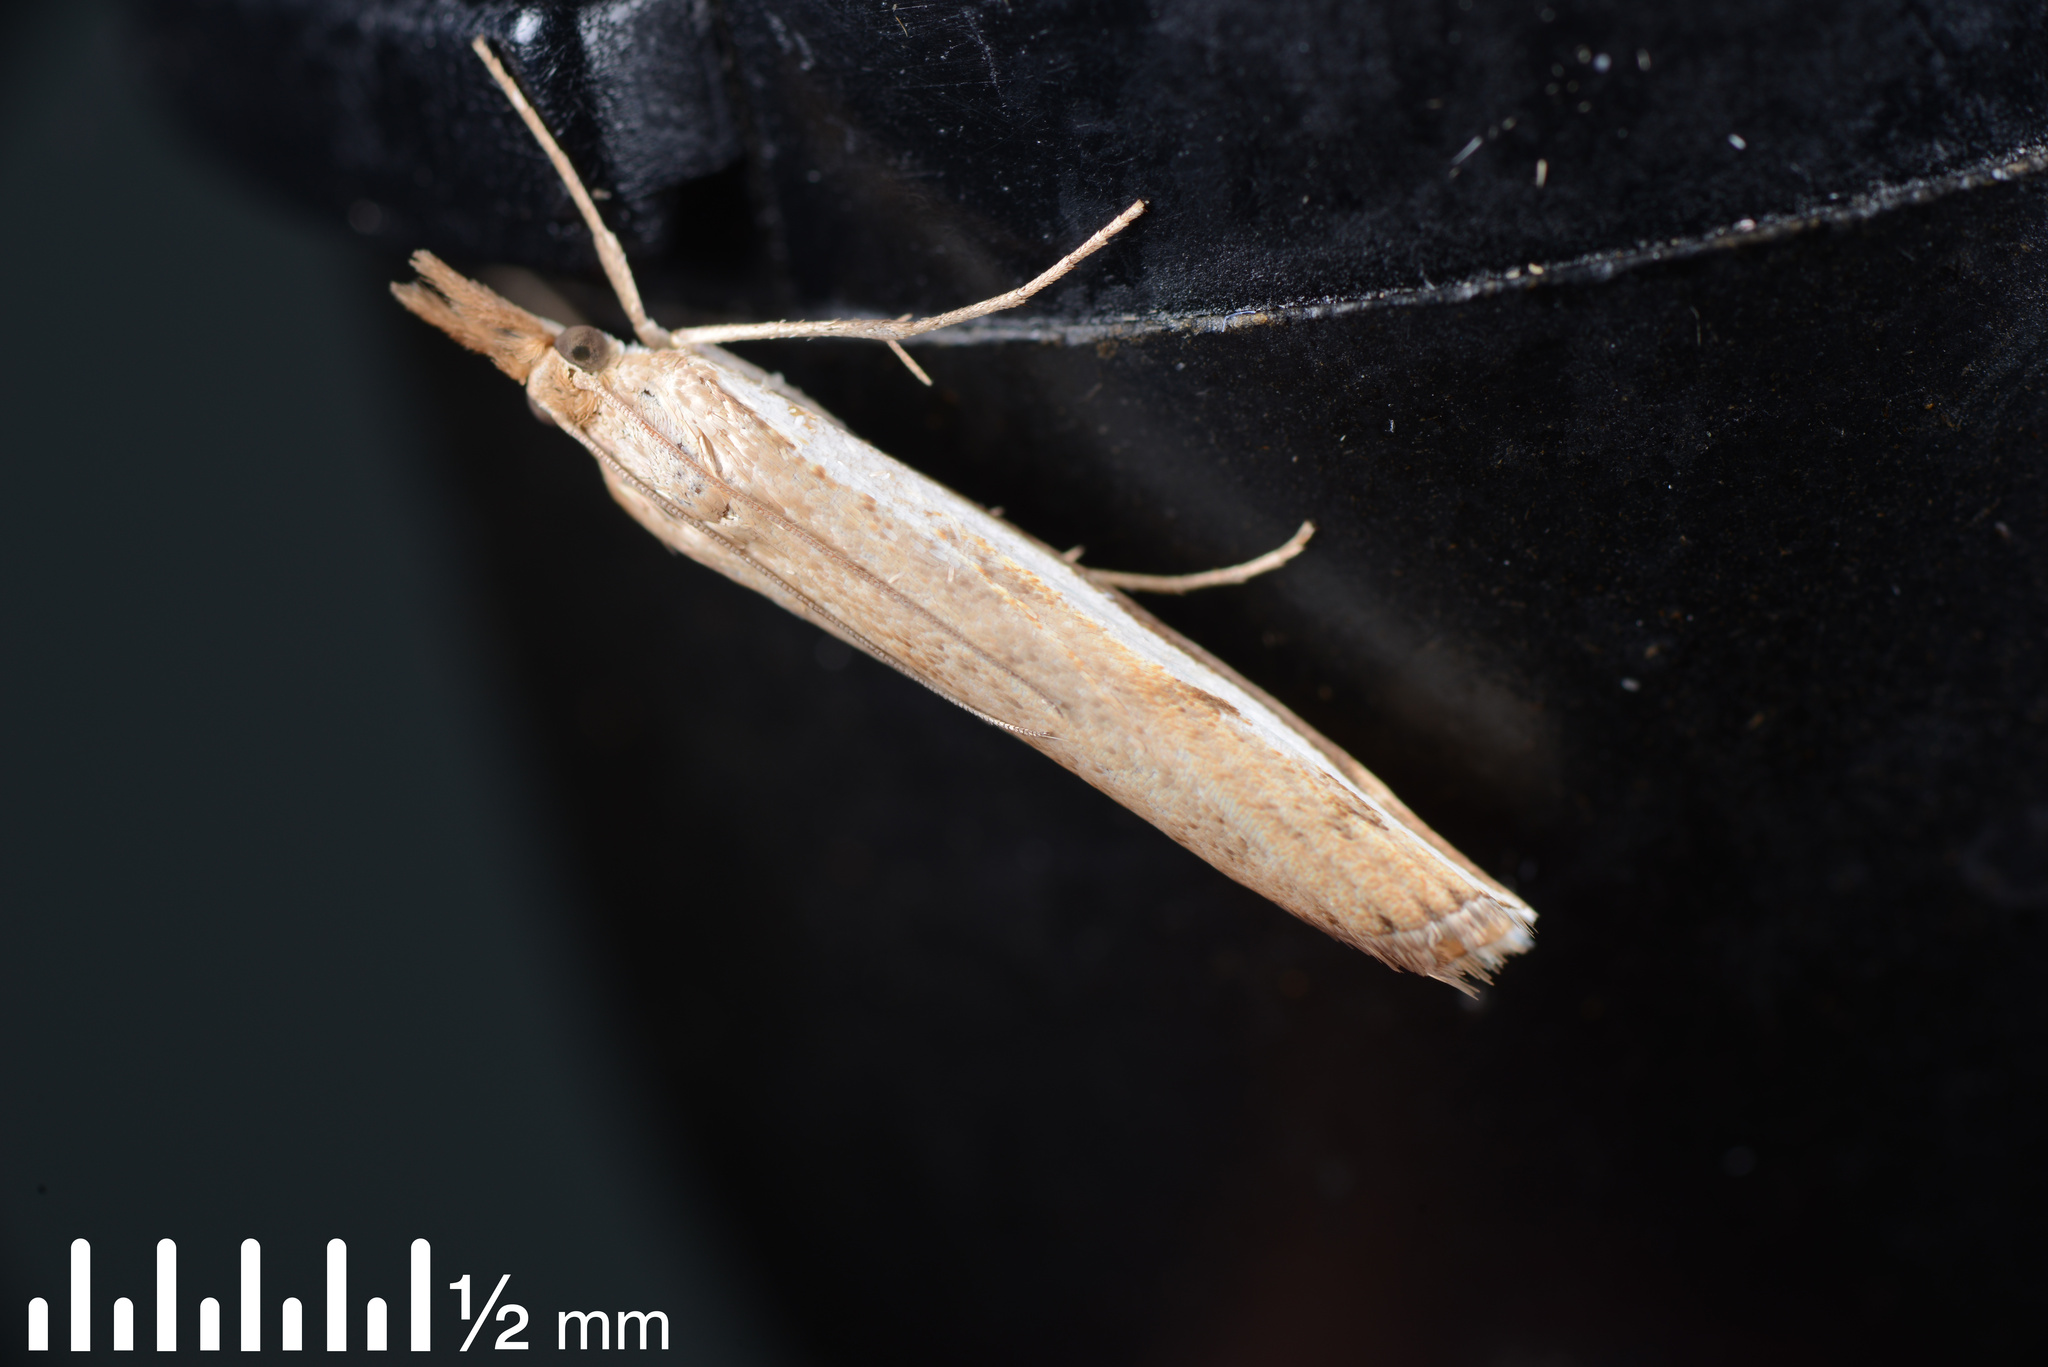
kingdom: Animalia
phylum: Arthropoda
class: Insecta
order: Lepidoptera
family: Crambidae
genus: Orocrambus
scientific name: Orocrambus flexuosellus
